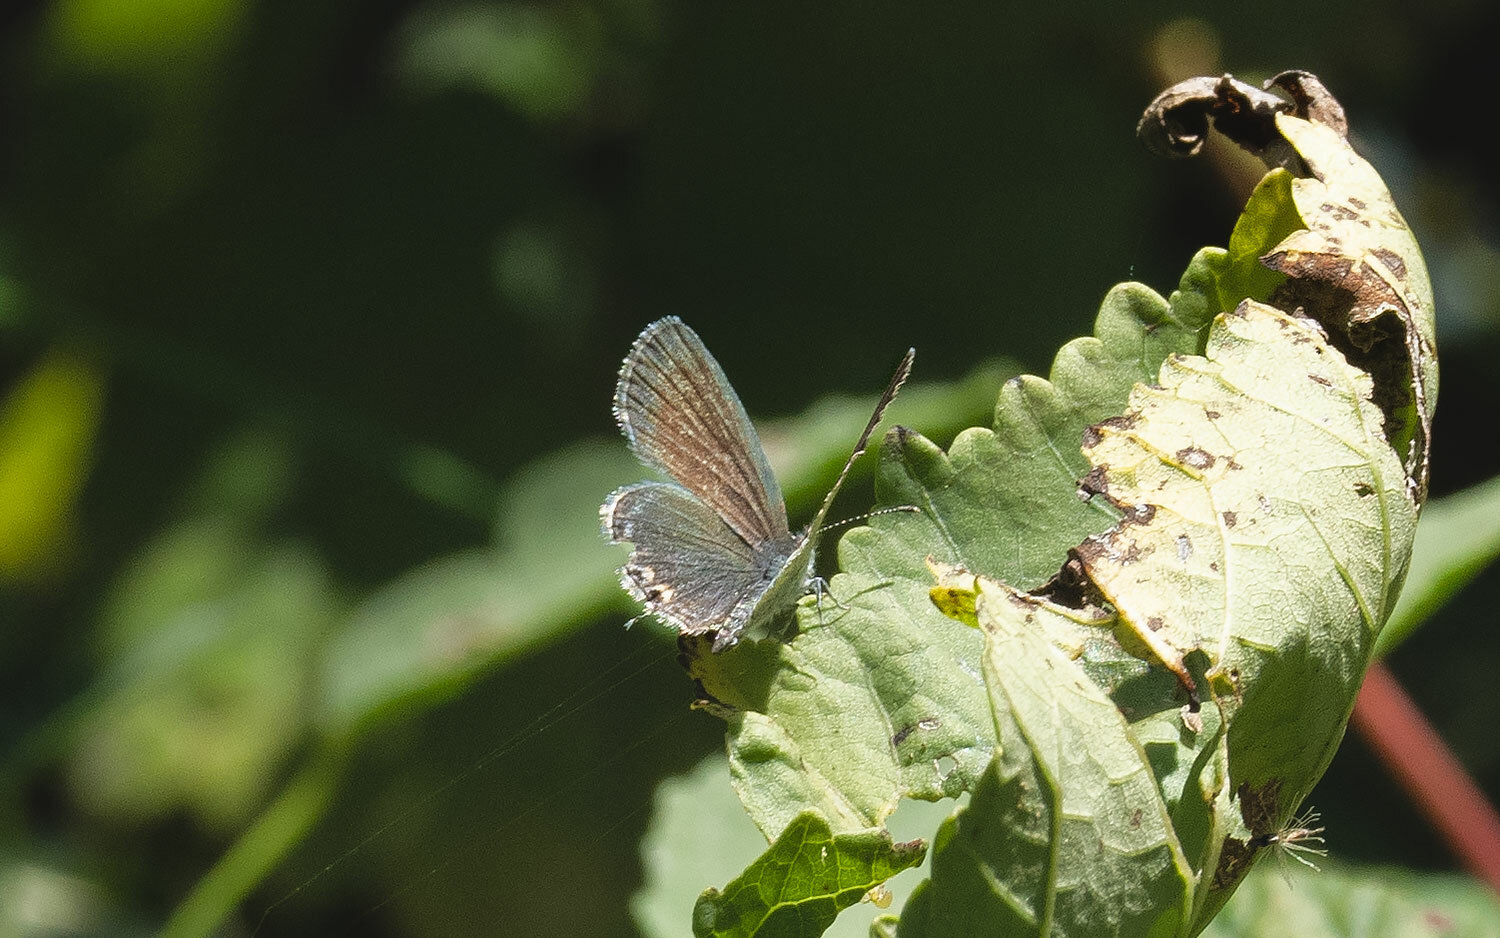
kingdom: Animalia
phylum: Arthropoda
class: Insecta
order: Lepidoptera
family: Lycaenidae
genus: Elkalyce
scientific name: Elkalyce comyntas
